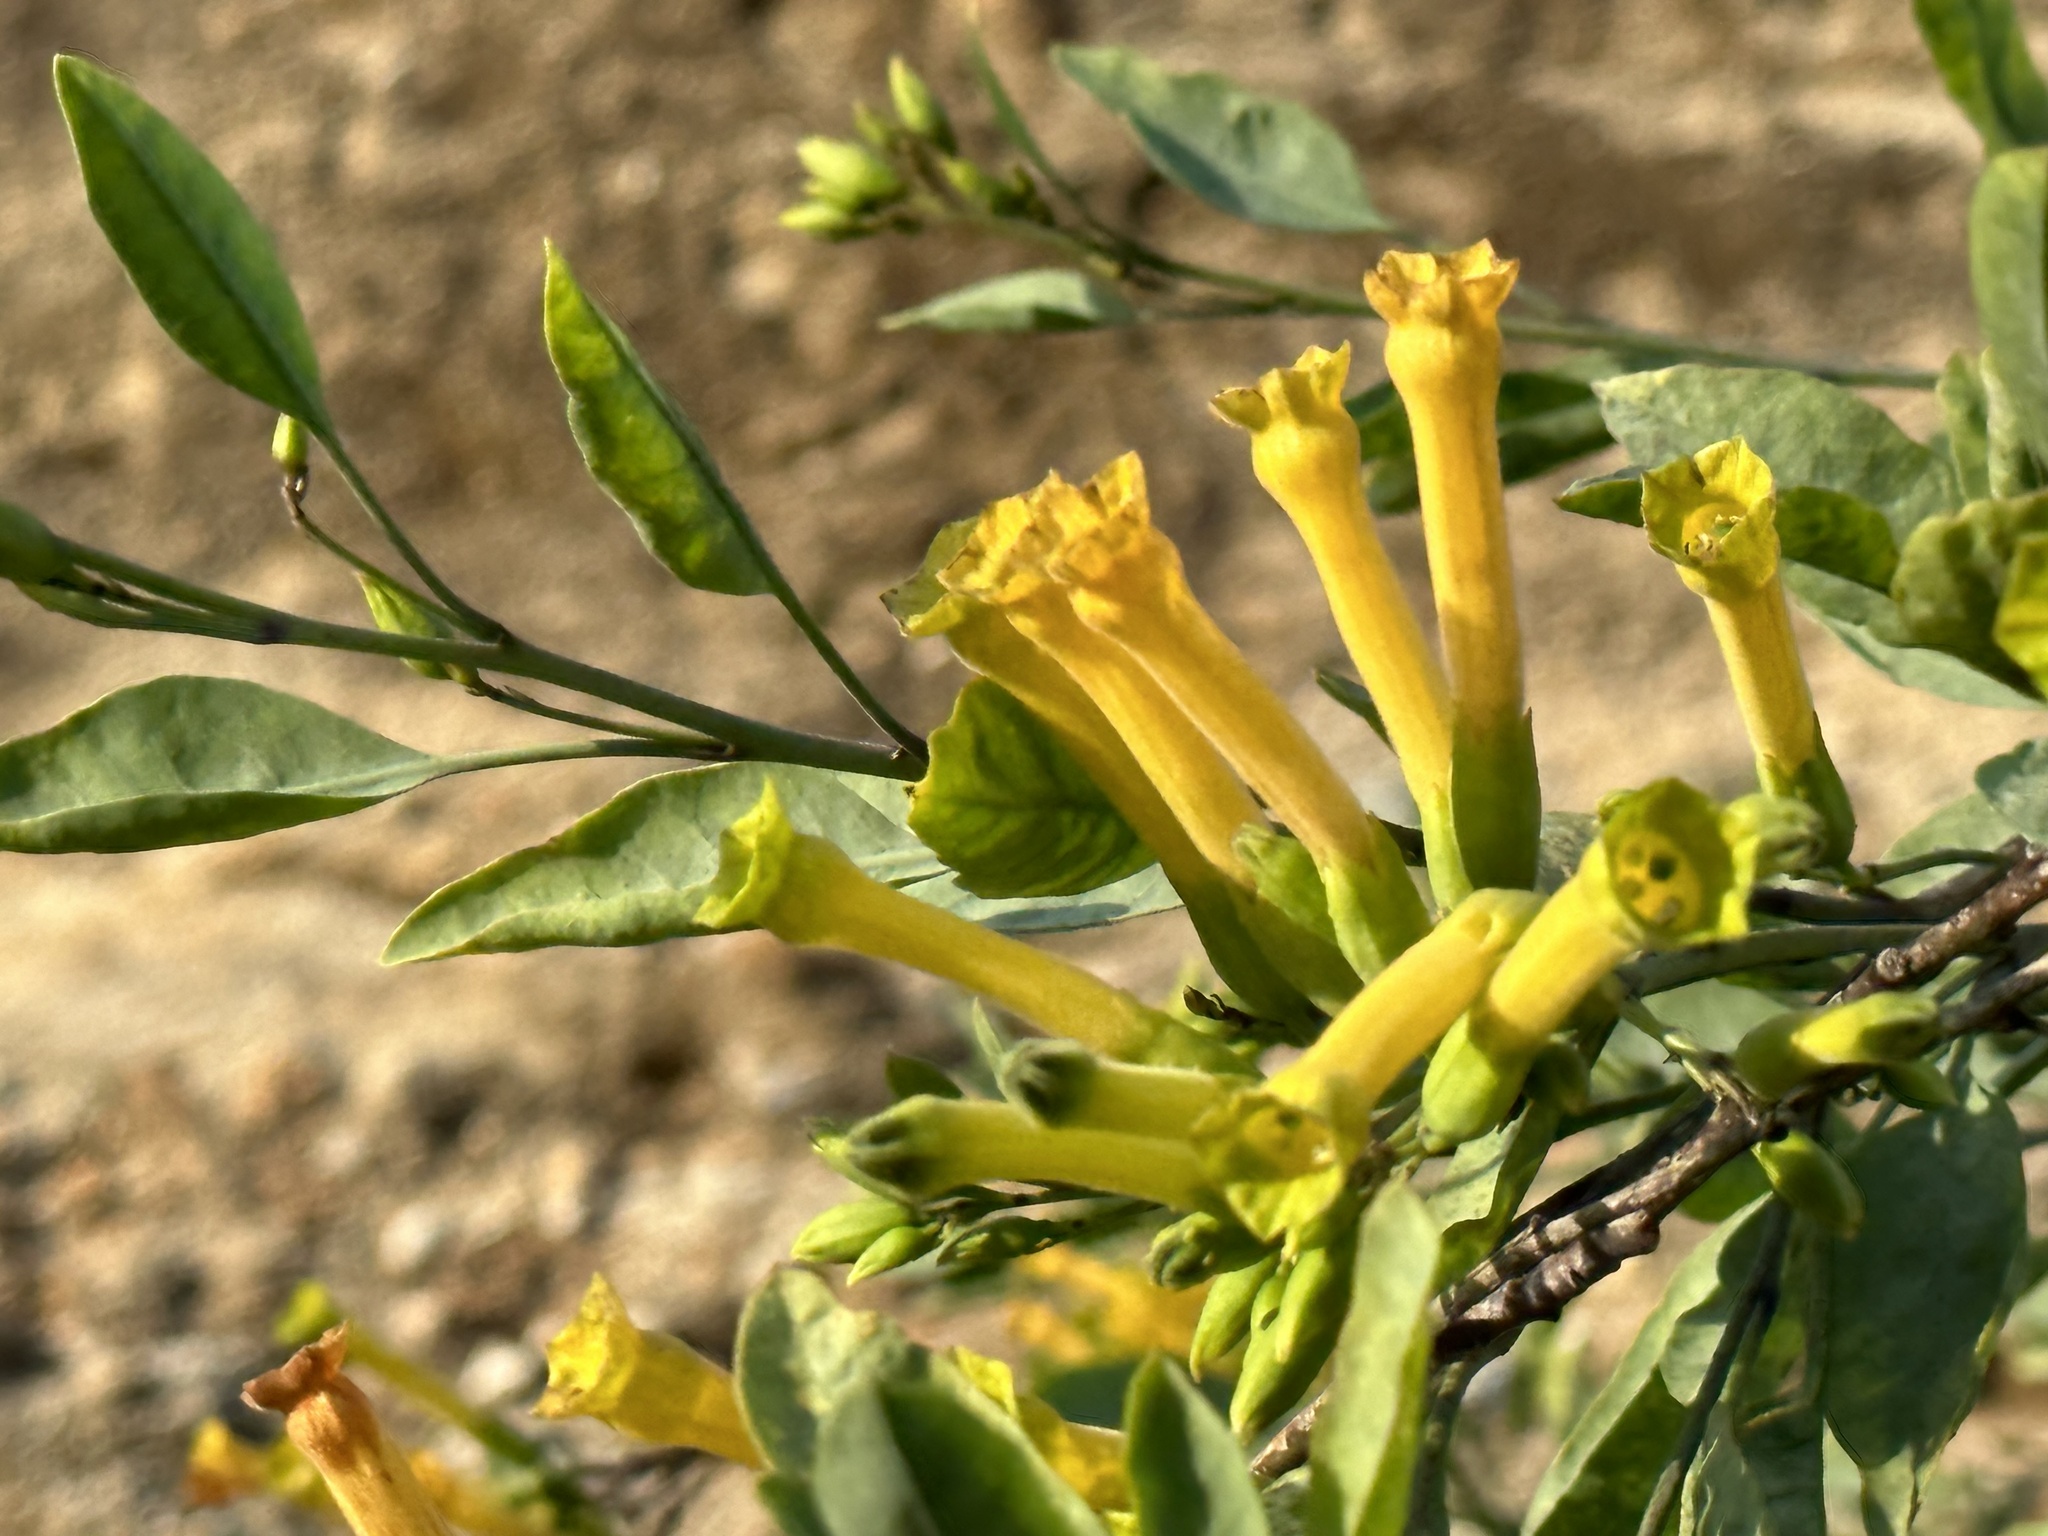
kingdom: Plantae
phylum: Tracheophyta
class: Magnoliopsida
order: Solanales
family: Solanaceae
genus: Nicotiana
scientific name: Nicotiana glauca
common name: Tree tobacco
